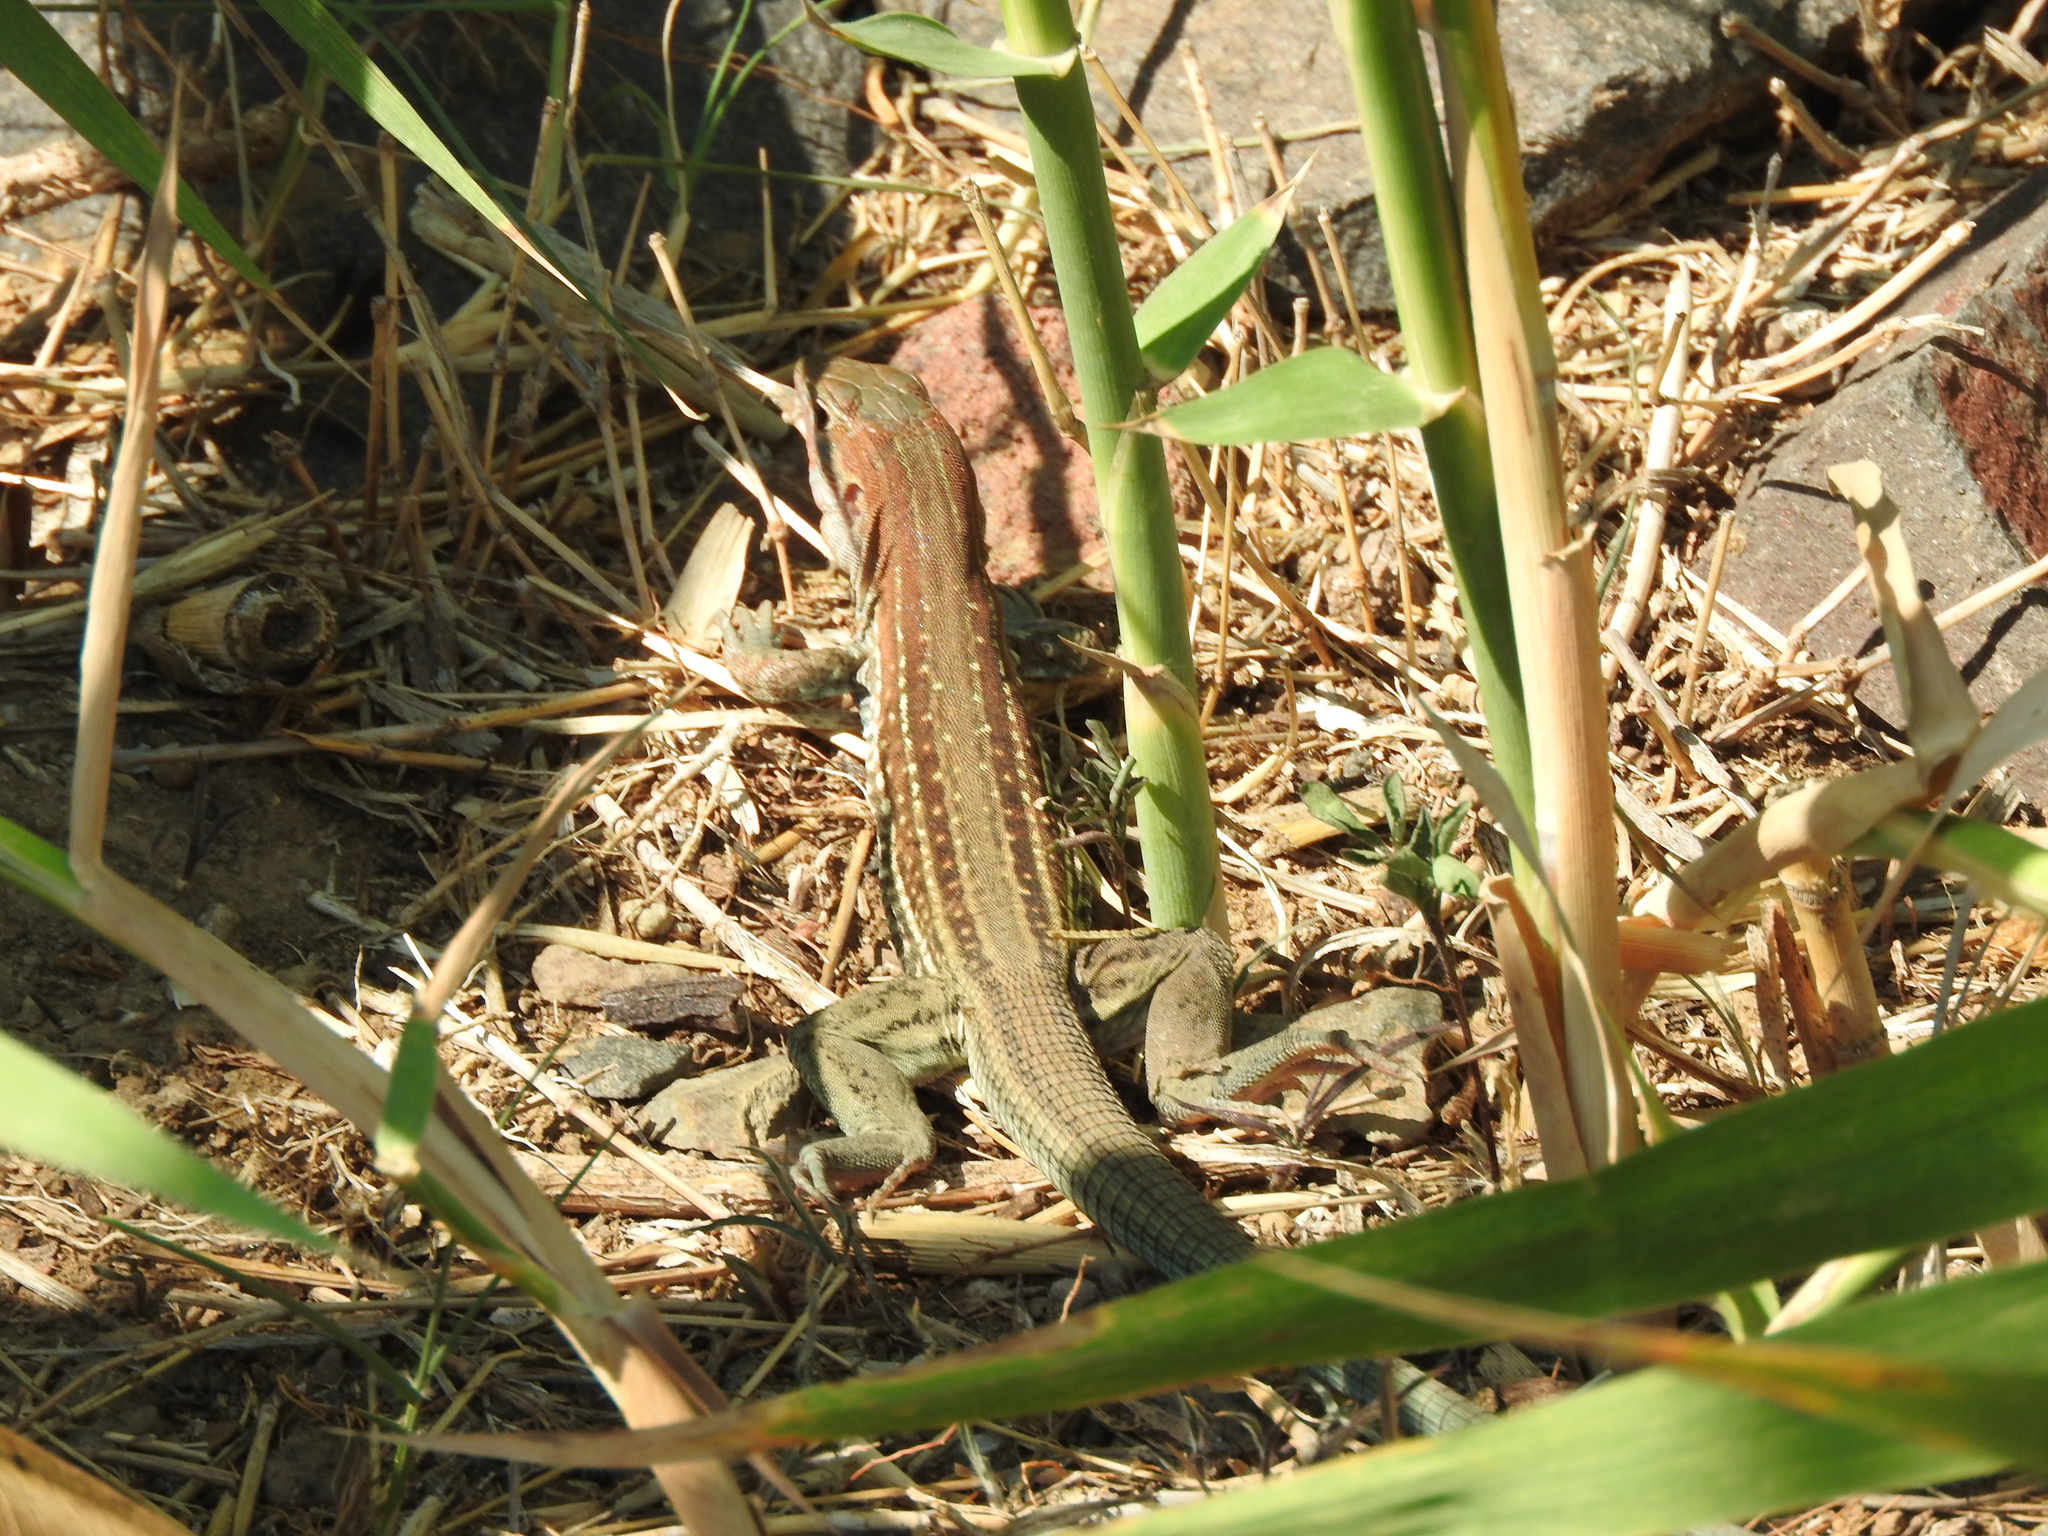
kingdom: Animalia
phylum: Chordata
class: Squamata
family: Teiidae
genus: Aspidoscelis
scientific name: Aspidoscelis gularis
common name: Eastern spotted whiptail
